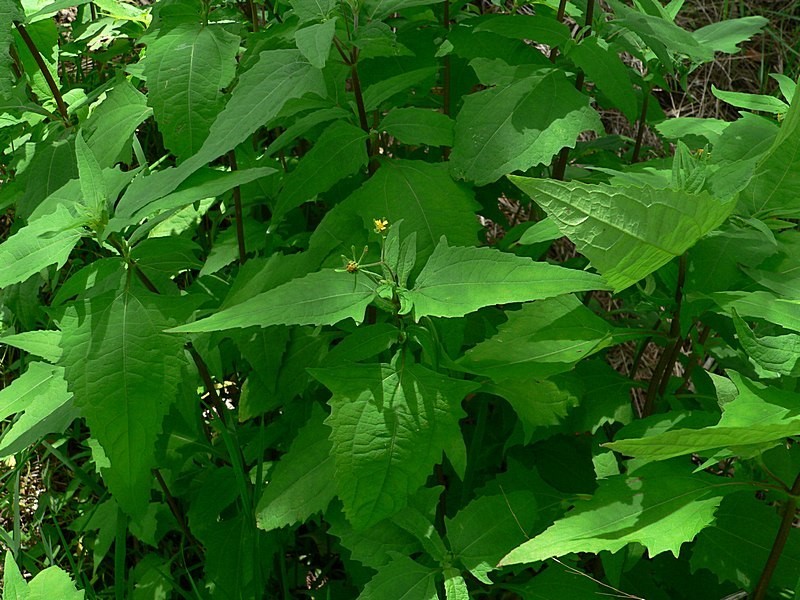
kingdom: Plantae
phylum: Tracheophyta
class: Magnoliopsida
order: Asterales
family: Asteraceae
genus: Sigesbeckia
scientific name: Sigesbeckia orientalis
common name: Eastern st paul's-wort
